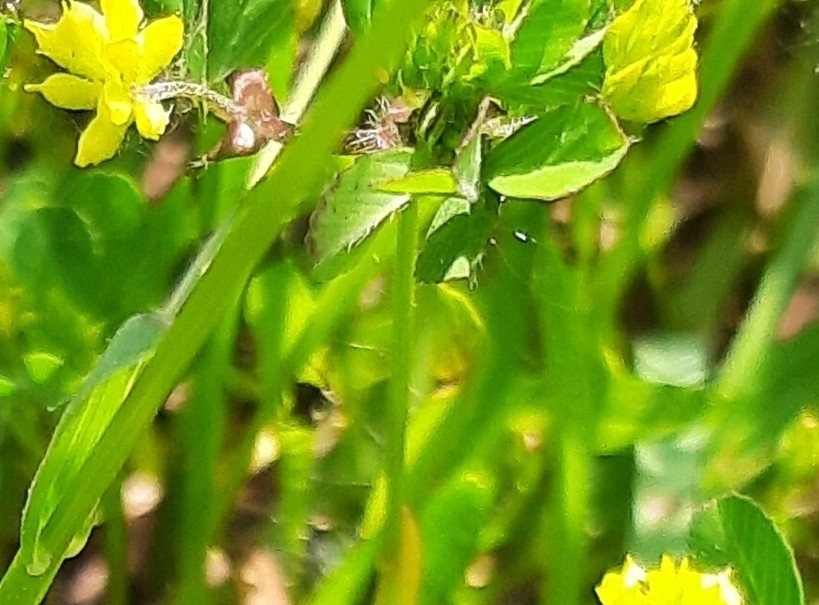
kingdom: Plantae
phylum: Tracheophyta
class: Magnoliopsida
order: Fabales
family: Fabaceae
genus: Trifolium
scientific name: Trifolium dubium
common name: Suckling clover
